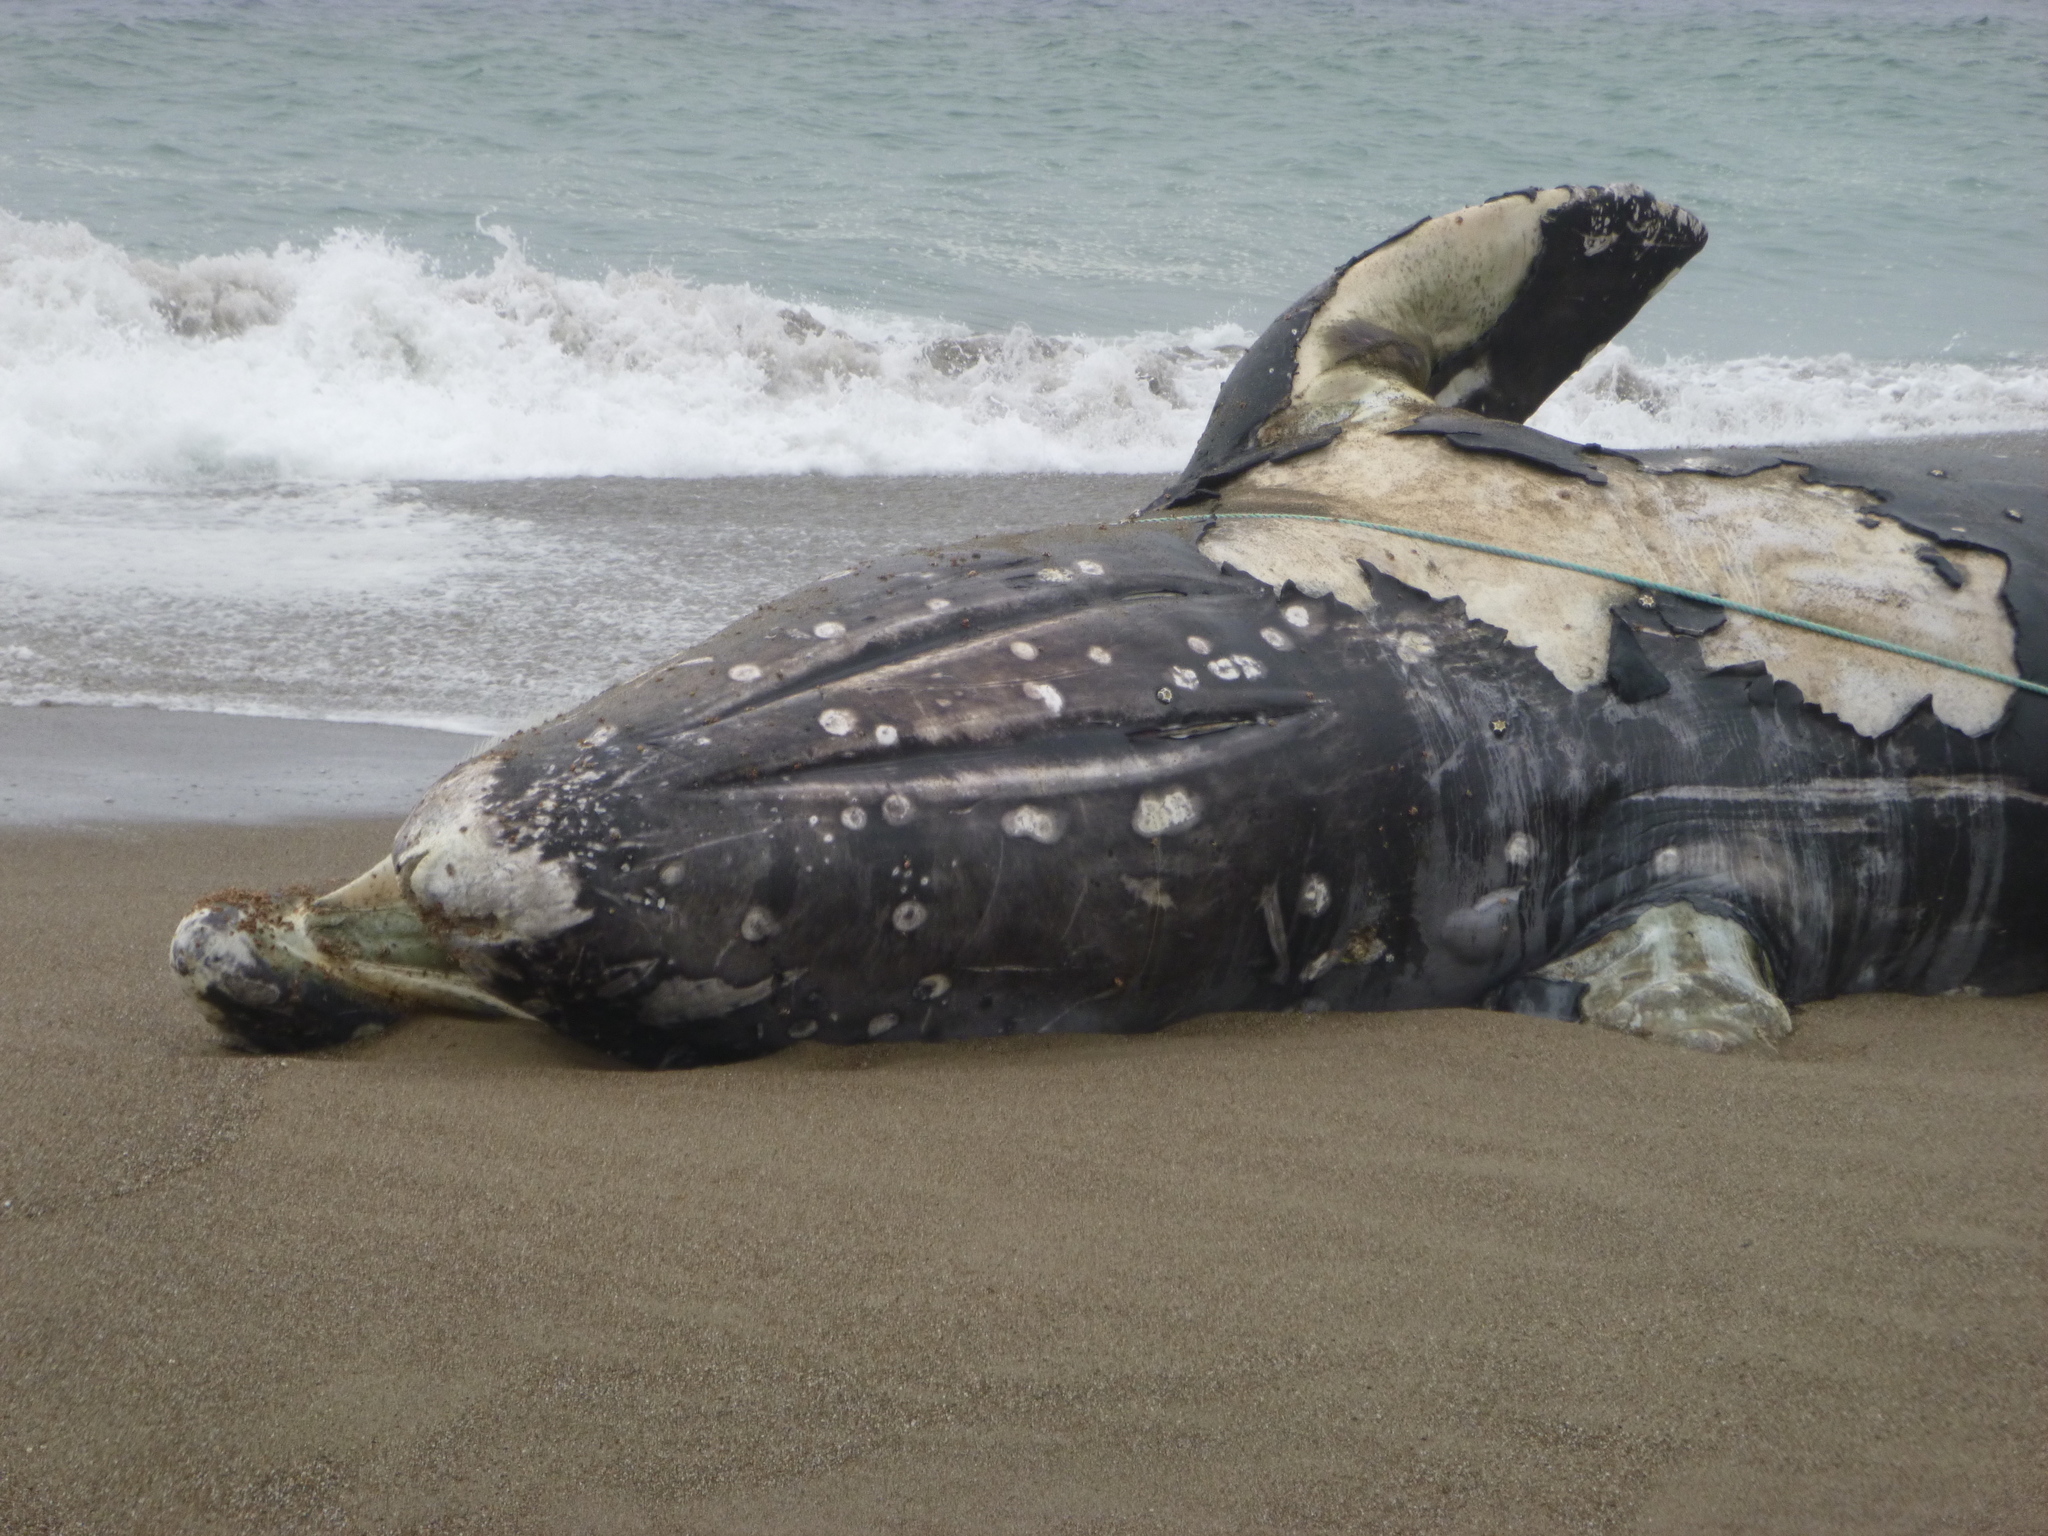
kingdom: Animalia
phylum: Chordata
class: Mammalia
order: Cetacea
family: Eschrichtiidae
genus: Eschrichtius
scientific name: Eschrichtius robustus
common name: Gray whale
